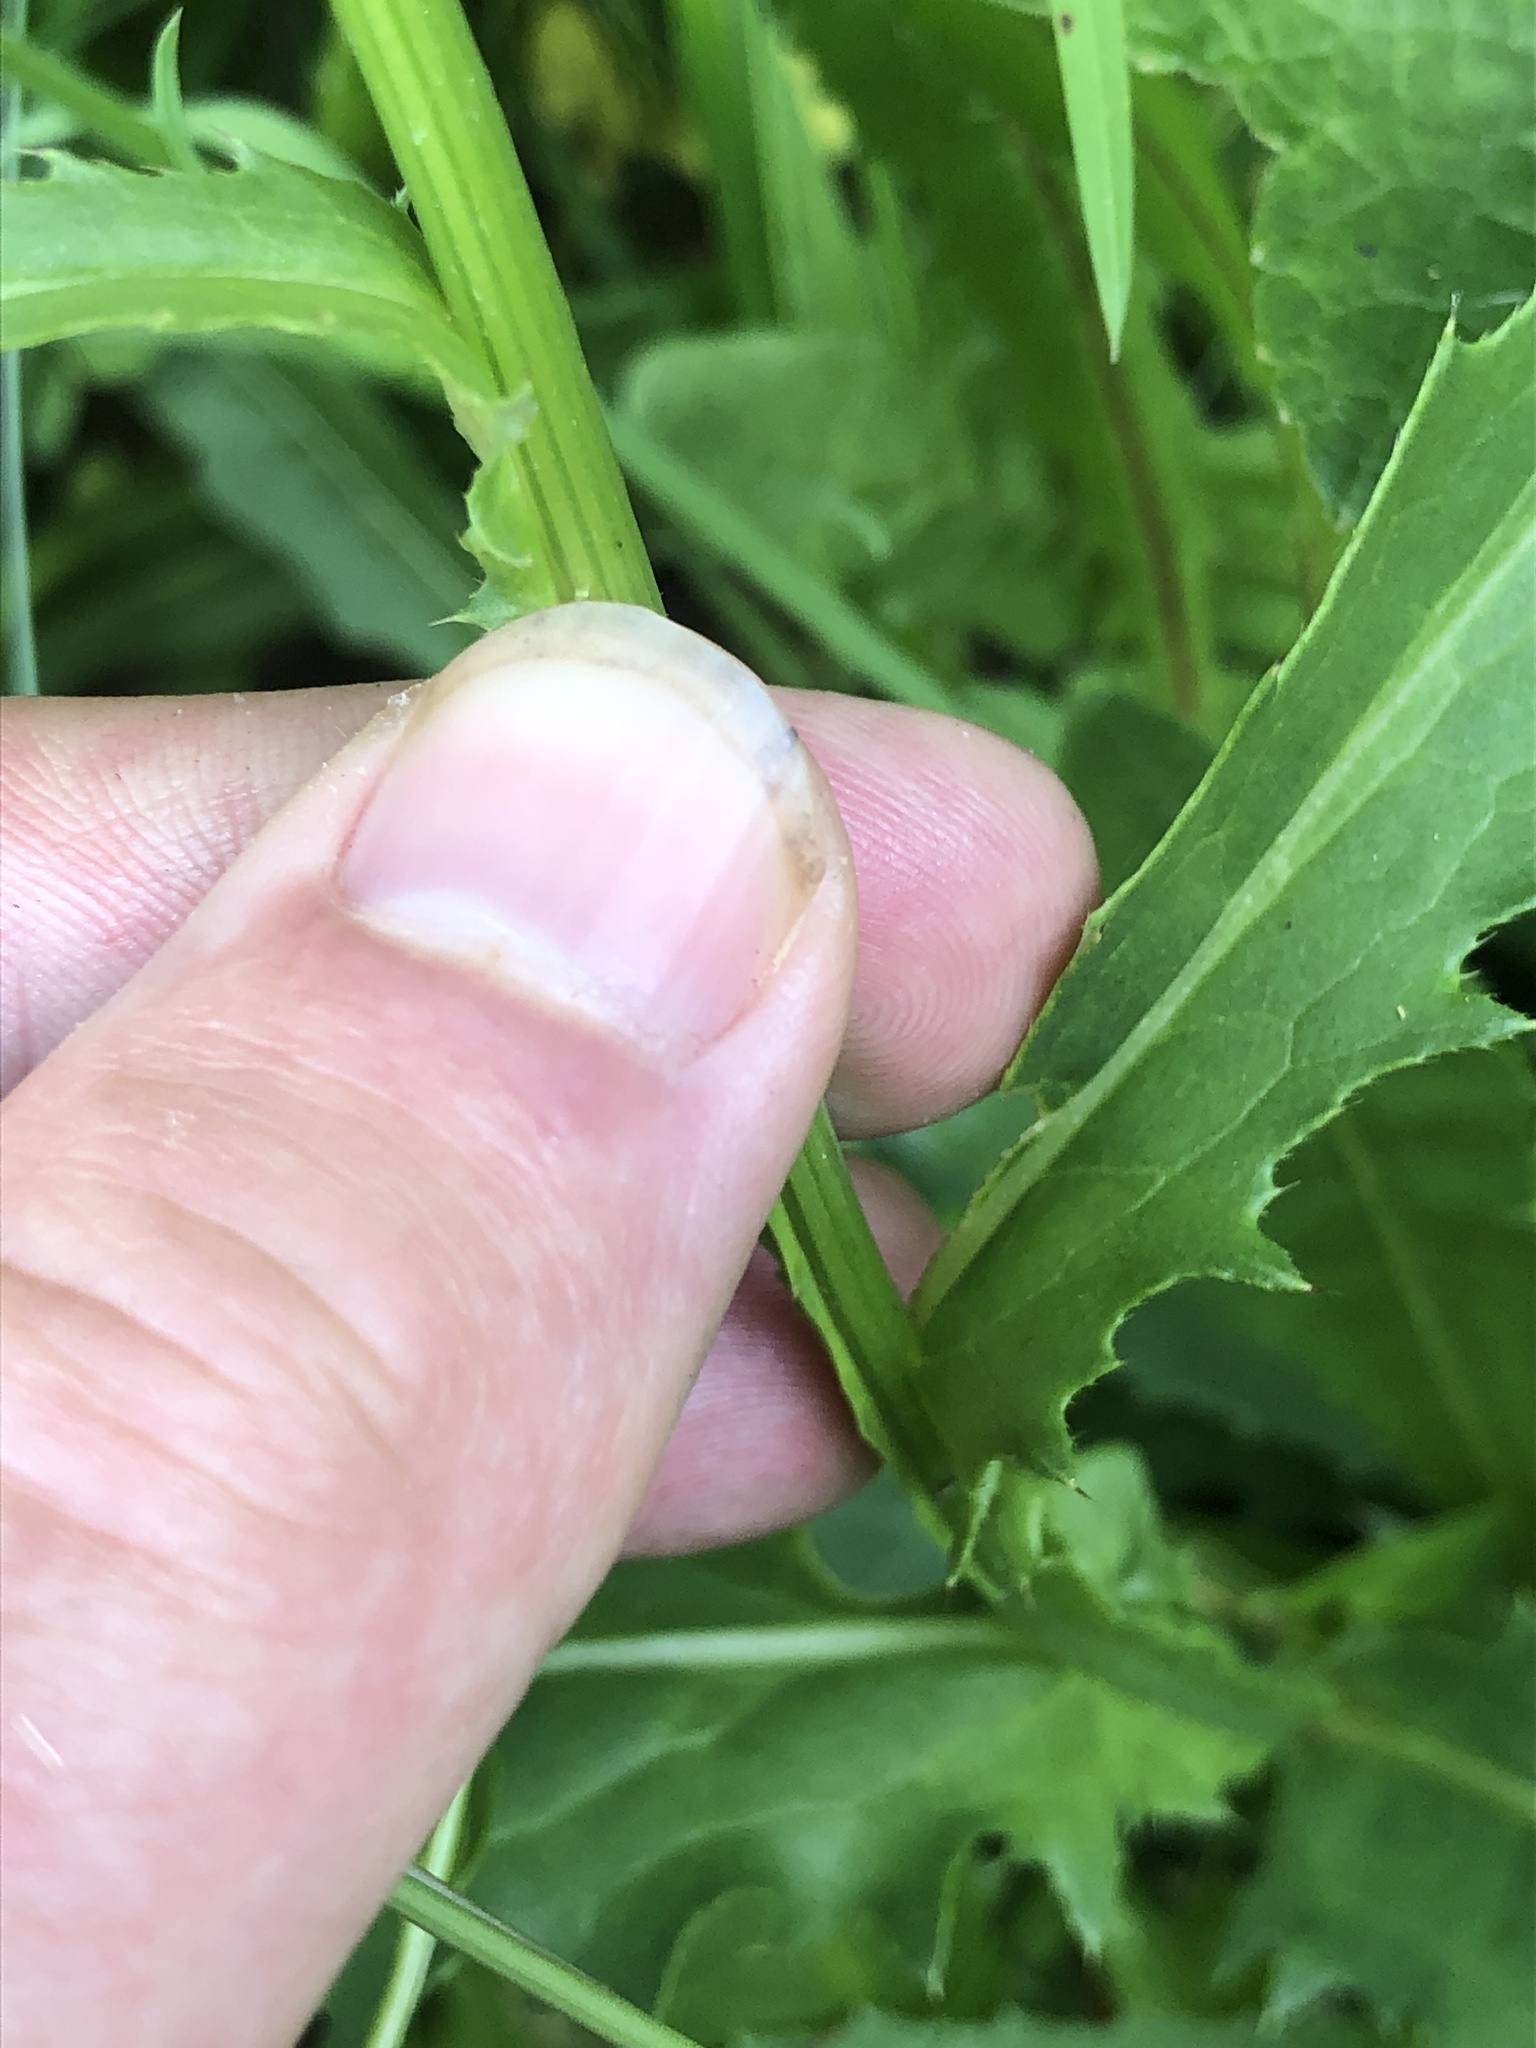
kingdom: Plantae
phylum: Tracheophyta
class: Magnoliopsida
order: Asterales
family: Asteraceae
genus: Carduus
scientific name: Carduus defloratus
